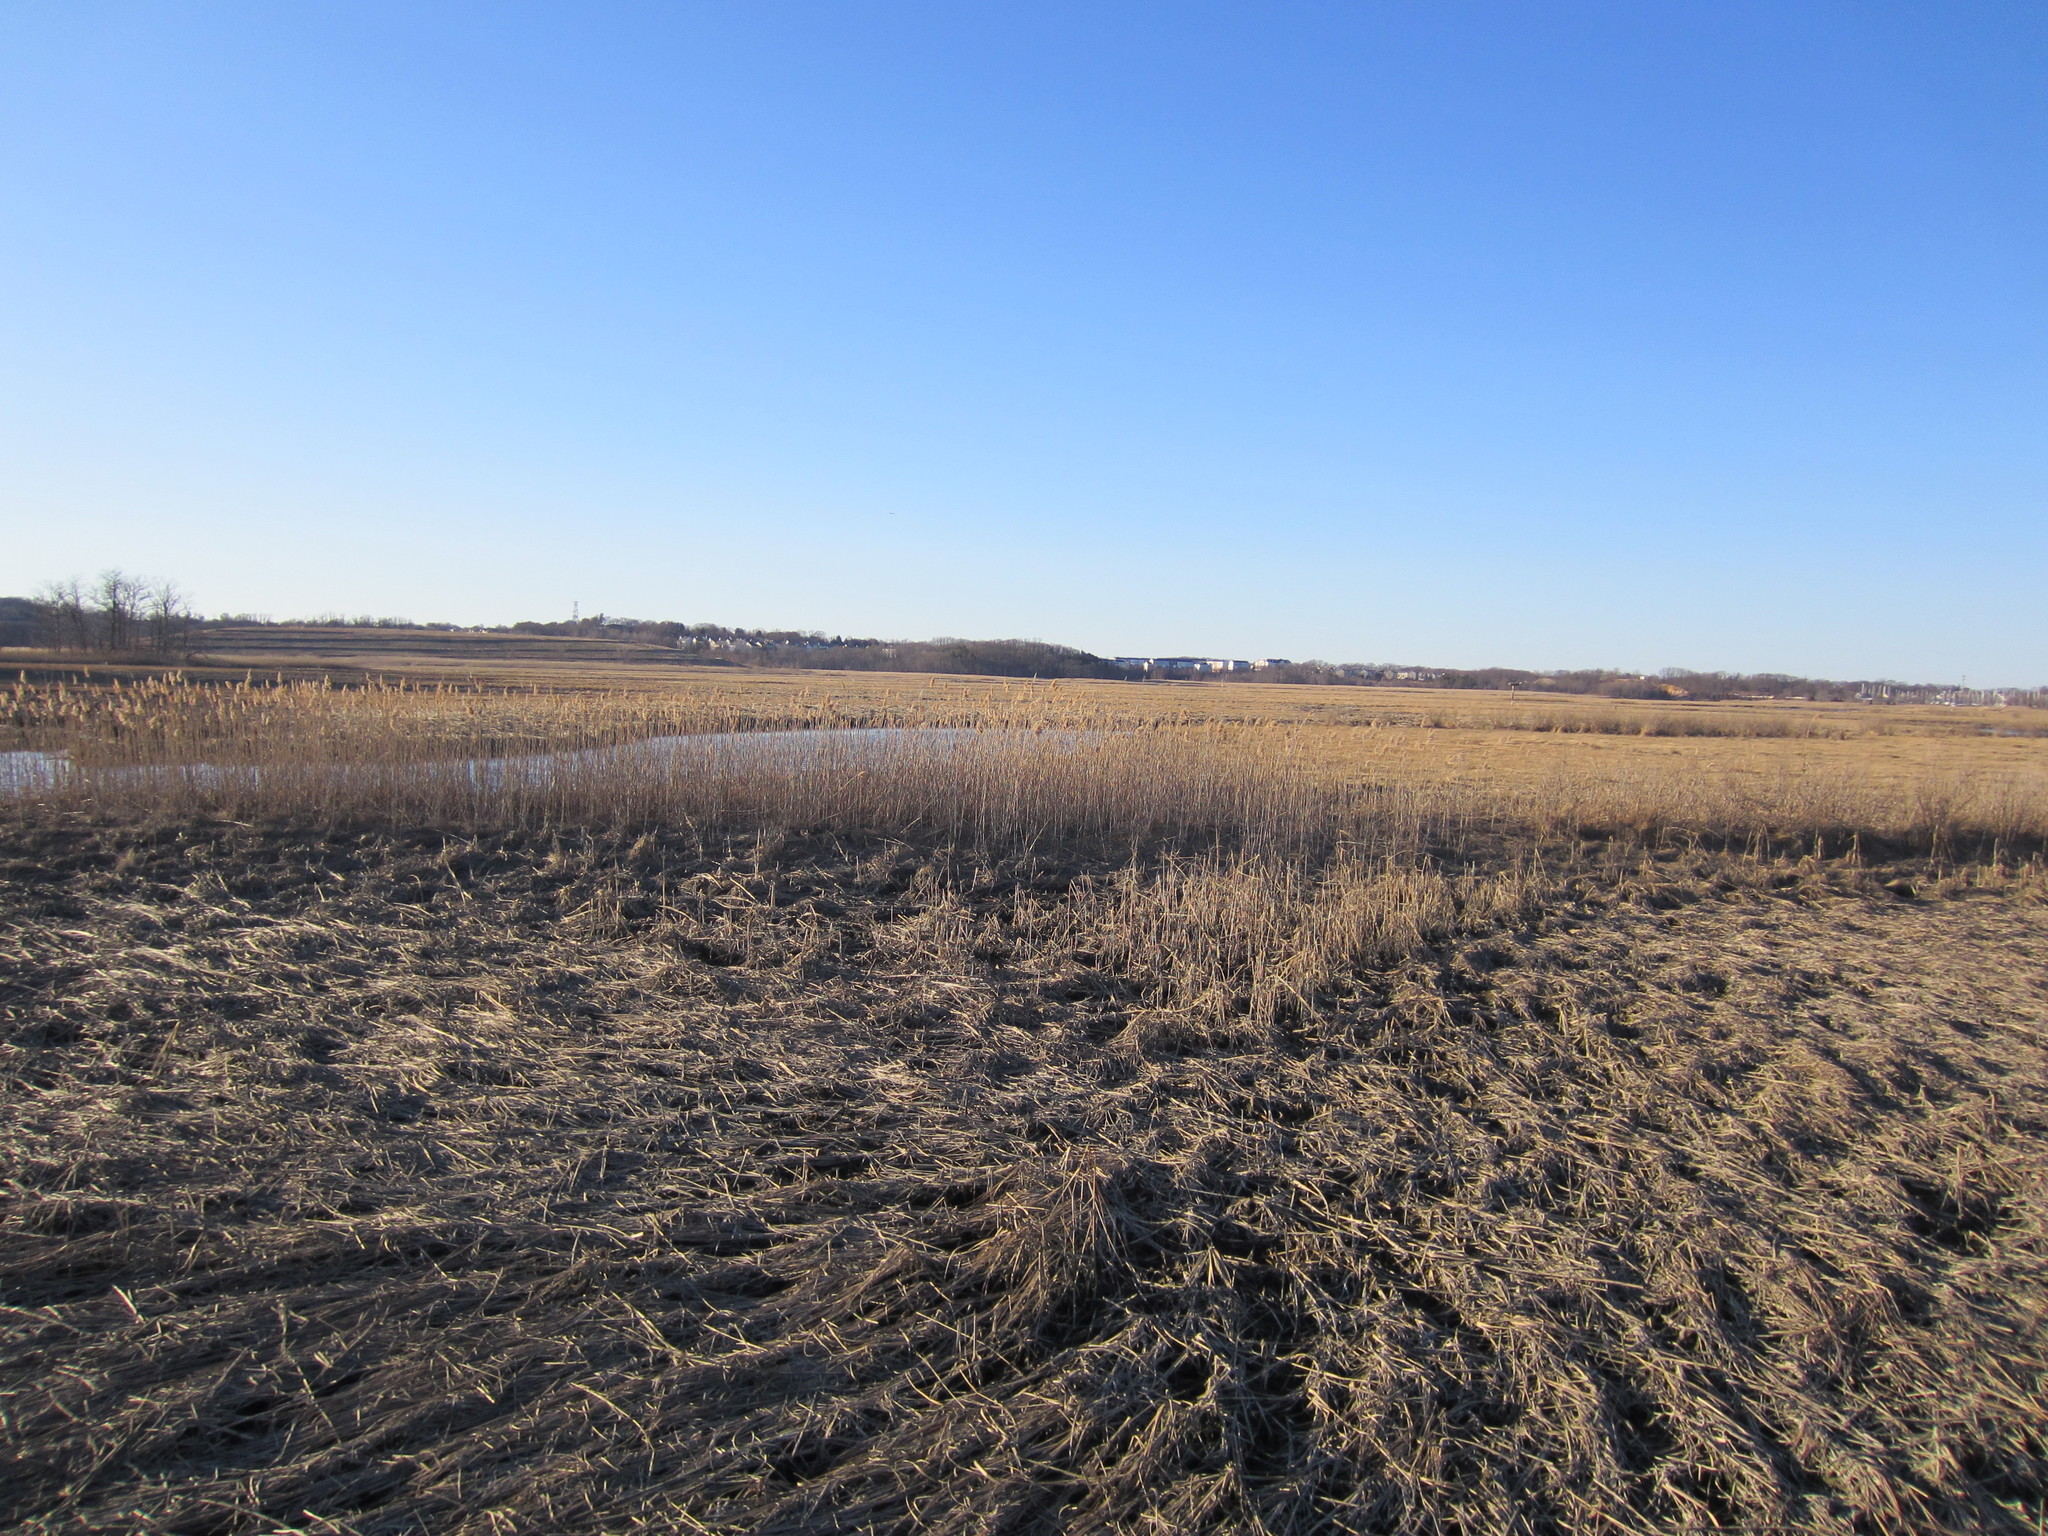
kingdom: Plantae
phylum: Tracheophyta
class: Liliopsida
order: Poales
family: Poaceae
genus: Phragmites
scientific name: Phragmites australis
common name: Common reed
